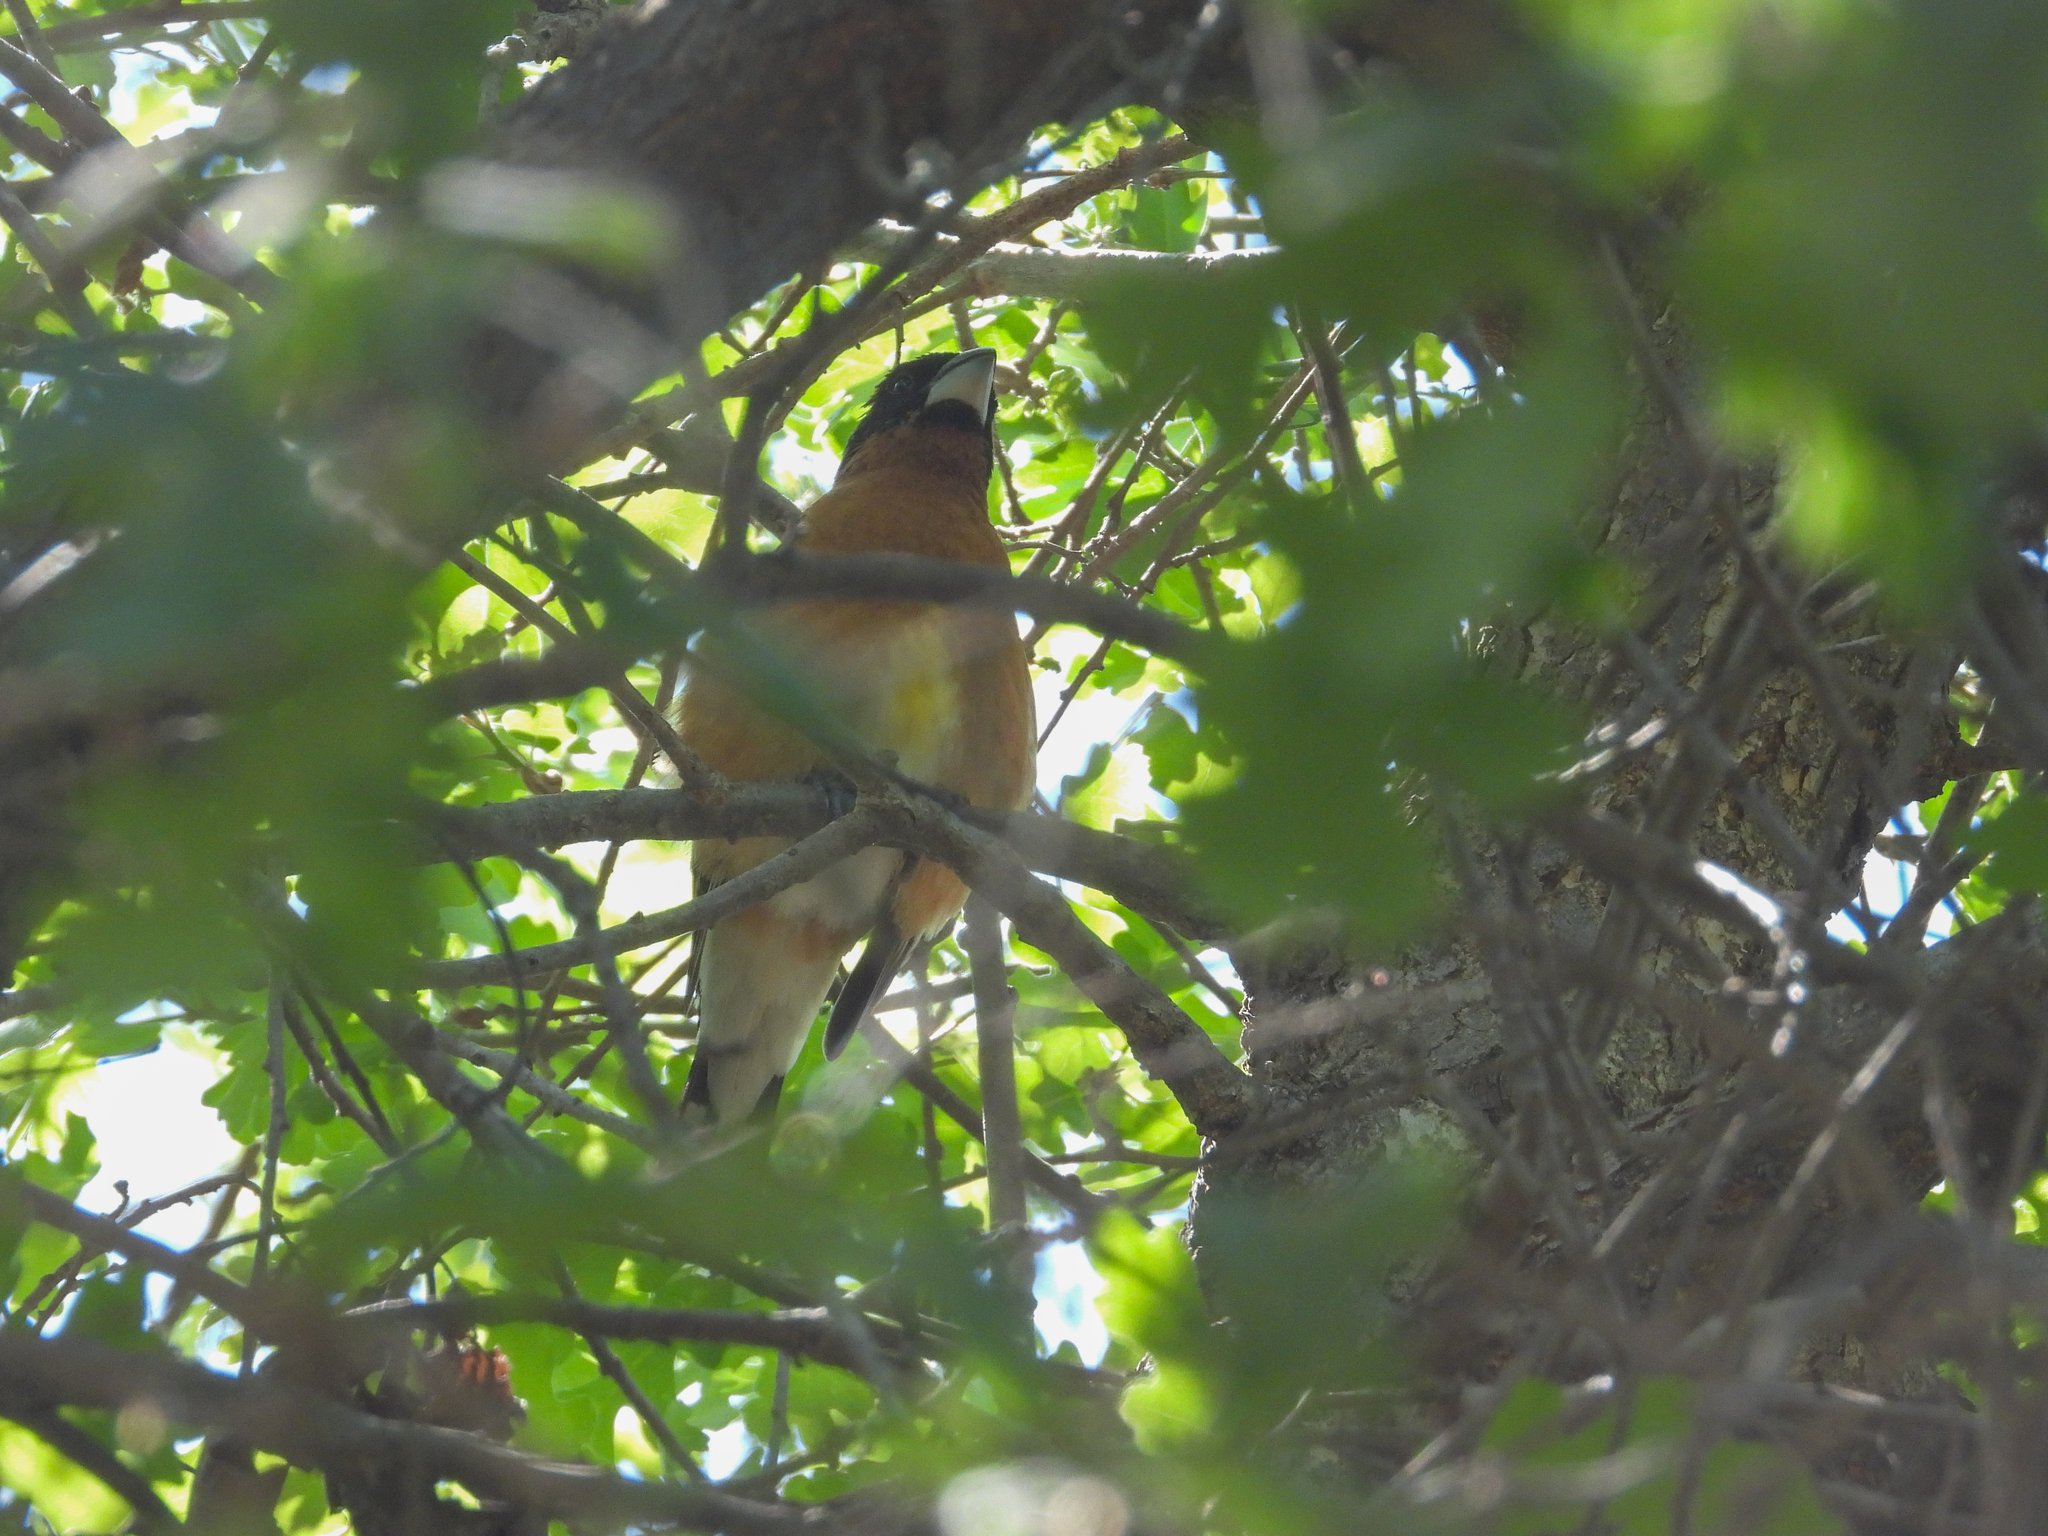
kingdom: Animalia
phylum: Chordata
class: Aves
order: Passeriformes
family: Cardinalidae
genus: Pheucticus
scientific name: Pheucticus melanocephalus
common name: Black-headed grosbeak
